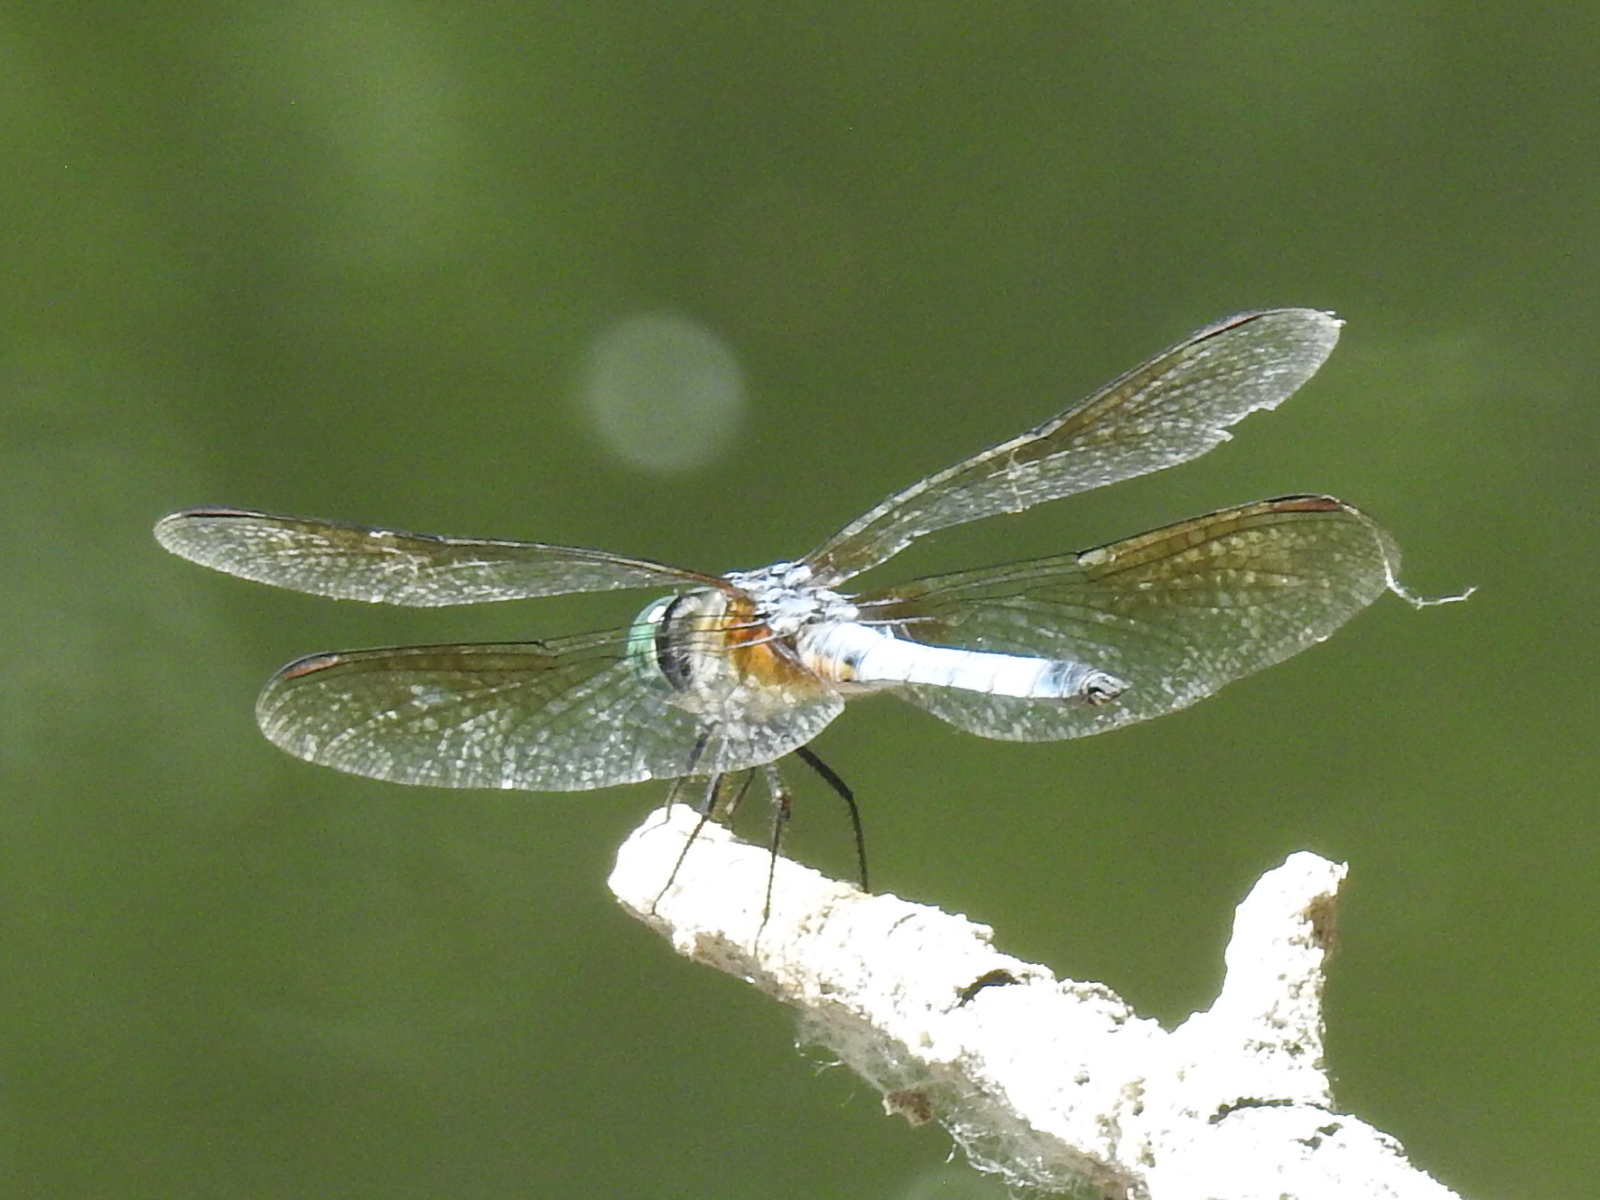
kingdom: Animalia
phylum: Arthropoda
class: Insecta
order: Odonata
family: Libellulidae
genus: Pachydiplax
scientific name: Pachydiplax longipennis
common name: Blue dasher
